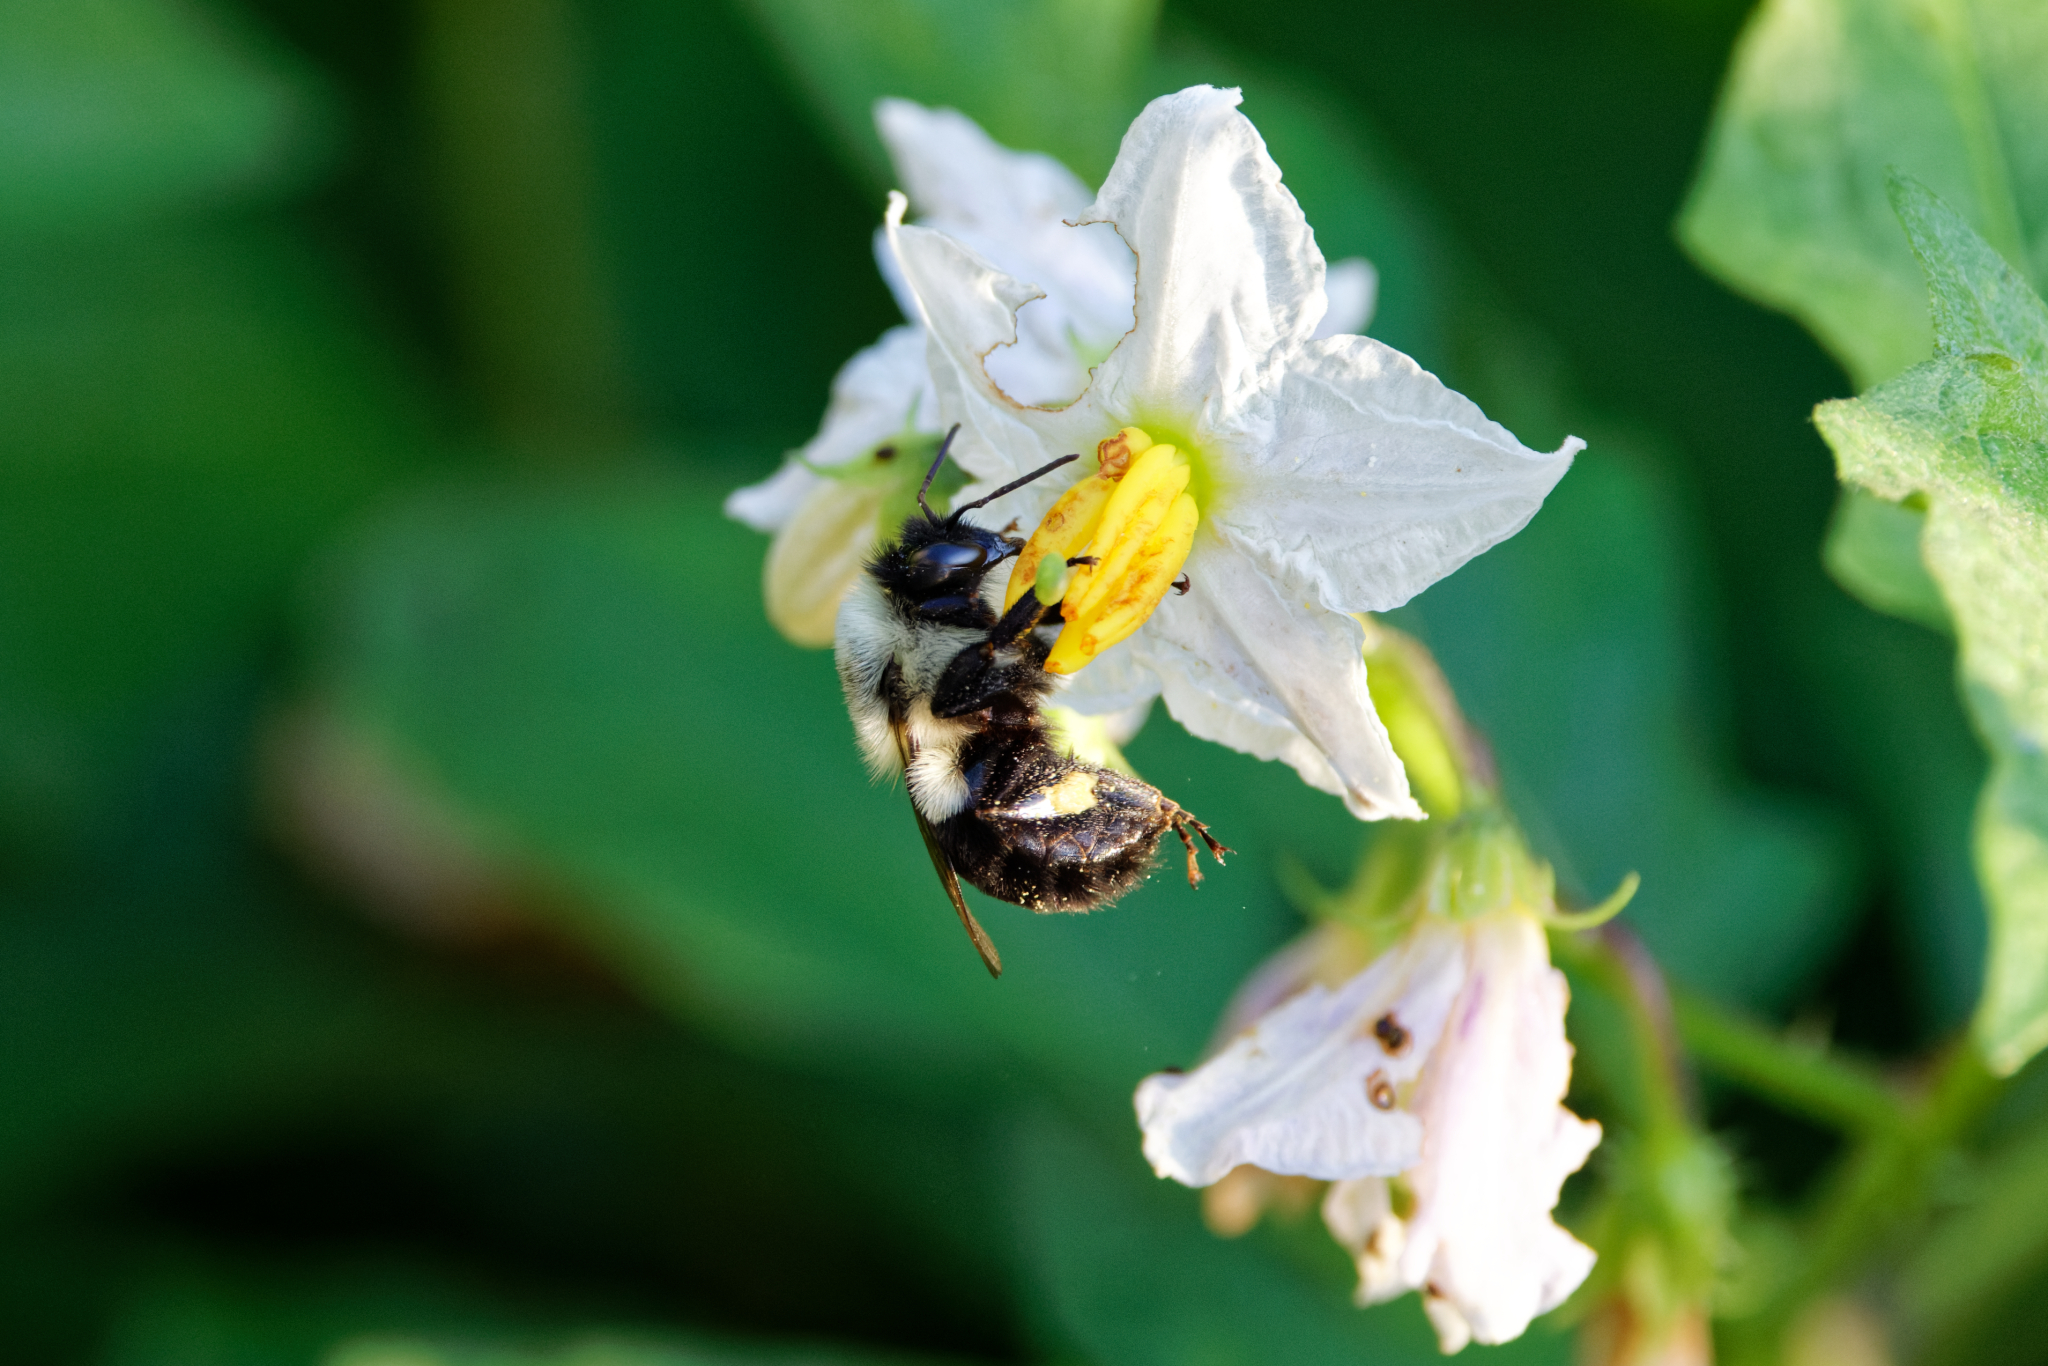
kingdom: Animalia
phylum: Arthropoda
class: Insecta
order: Hymenoptera
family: Apidae
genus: Bombus
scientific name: Bombus impatiens
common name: Common eastern bumble bee
